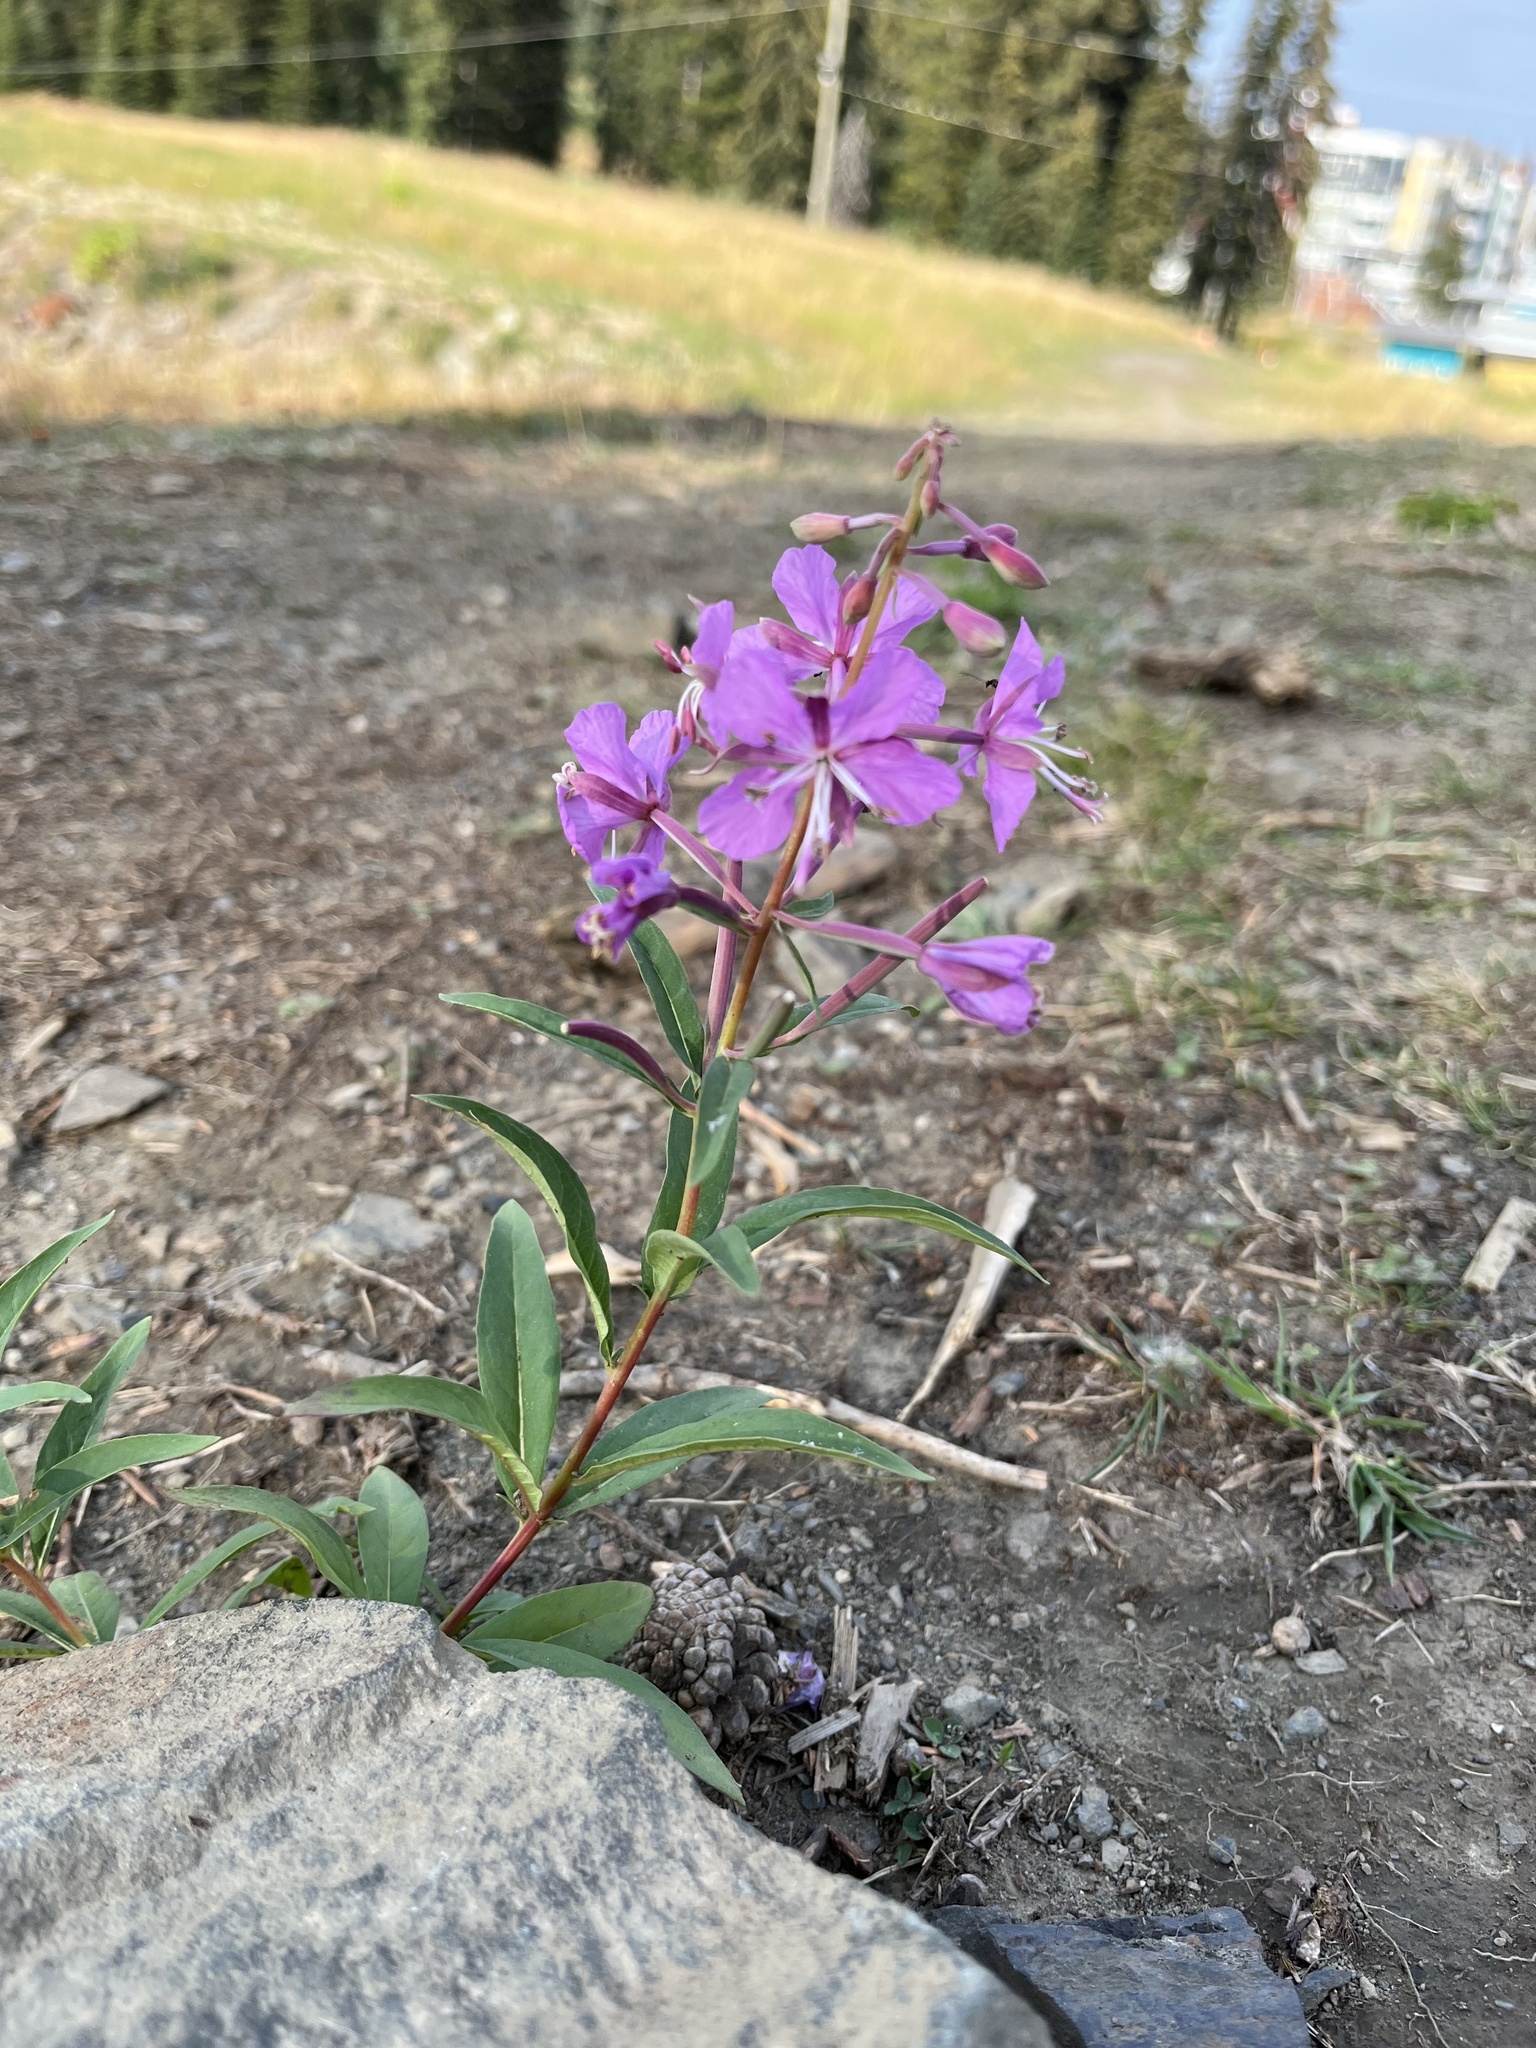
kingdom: Plantae
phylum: Tracheophyta
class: Magnoliopsida
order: Myrtales
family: Onagraceae
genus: Chamaenerion
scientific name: Chamaenerion latifolium
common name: Dwarf fireweed
